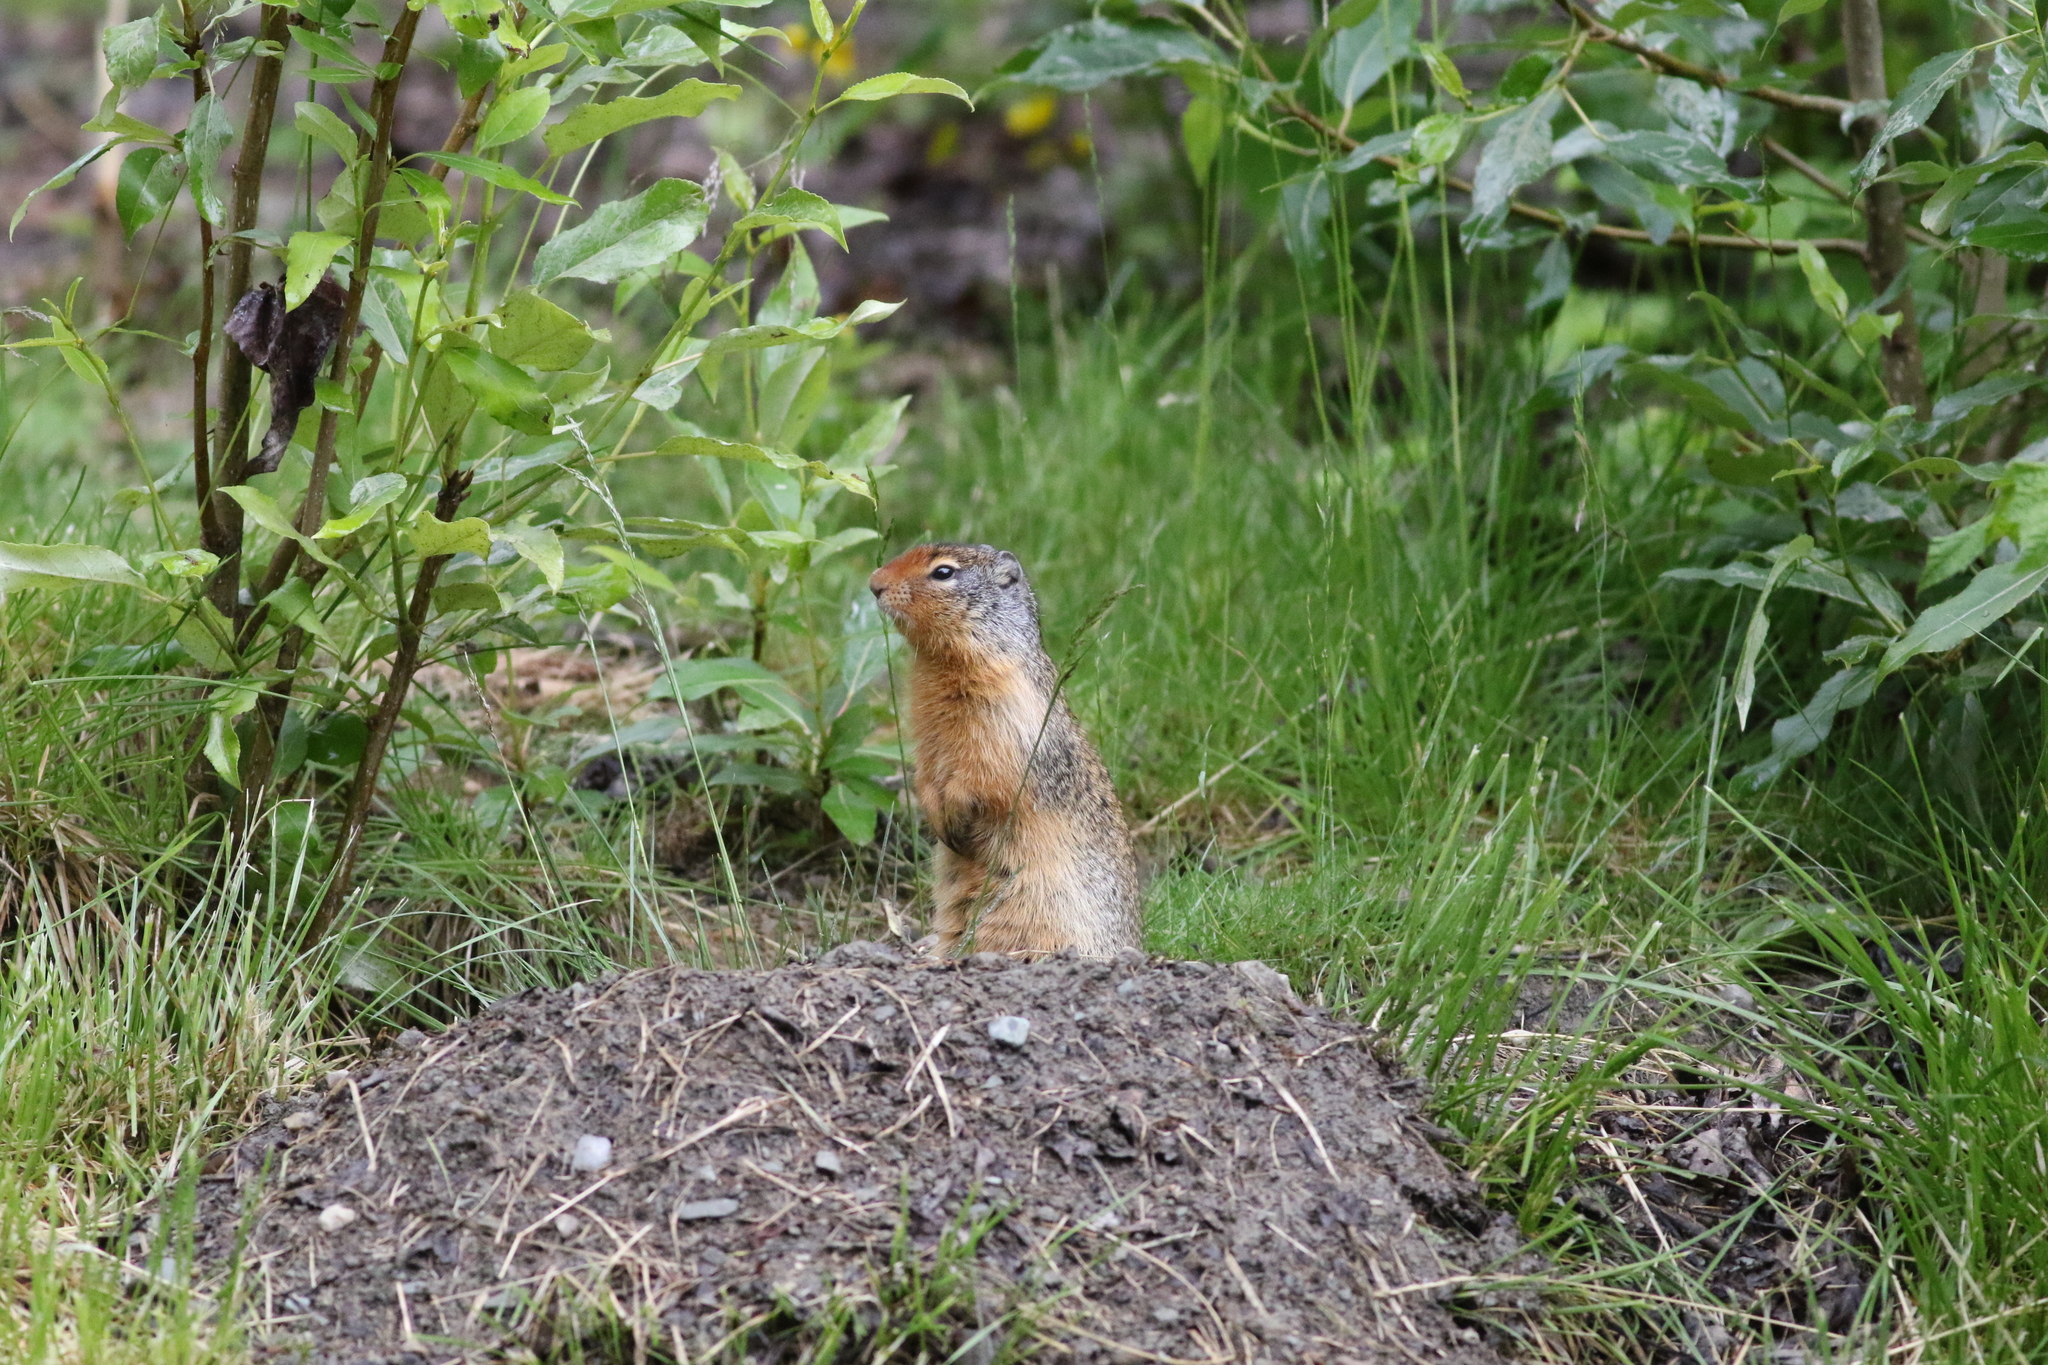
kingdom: Animalia
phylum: Chordata
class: Mammalia
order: Rodentia
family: Sciuridae
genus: Urocitellus
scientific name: Urocitellus columbianus
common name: Columbian ground squirrel
